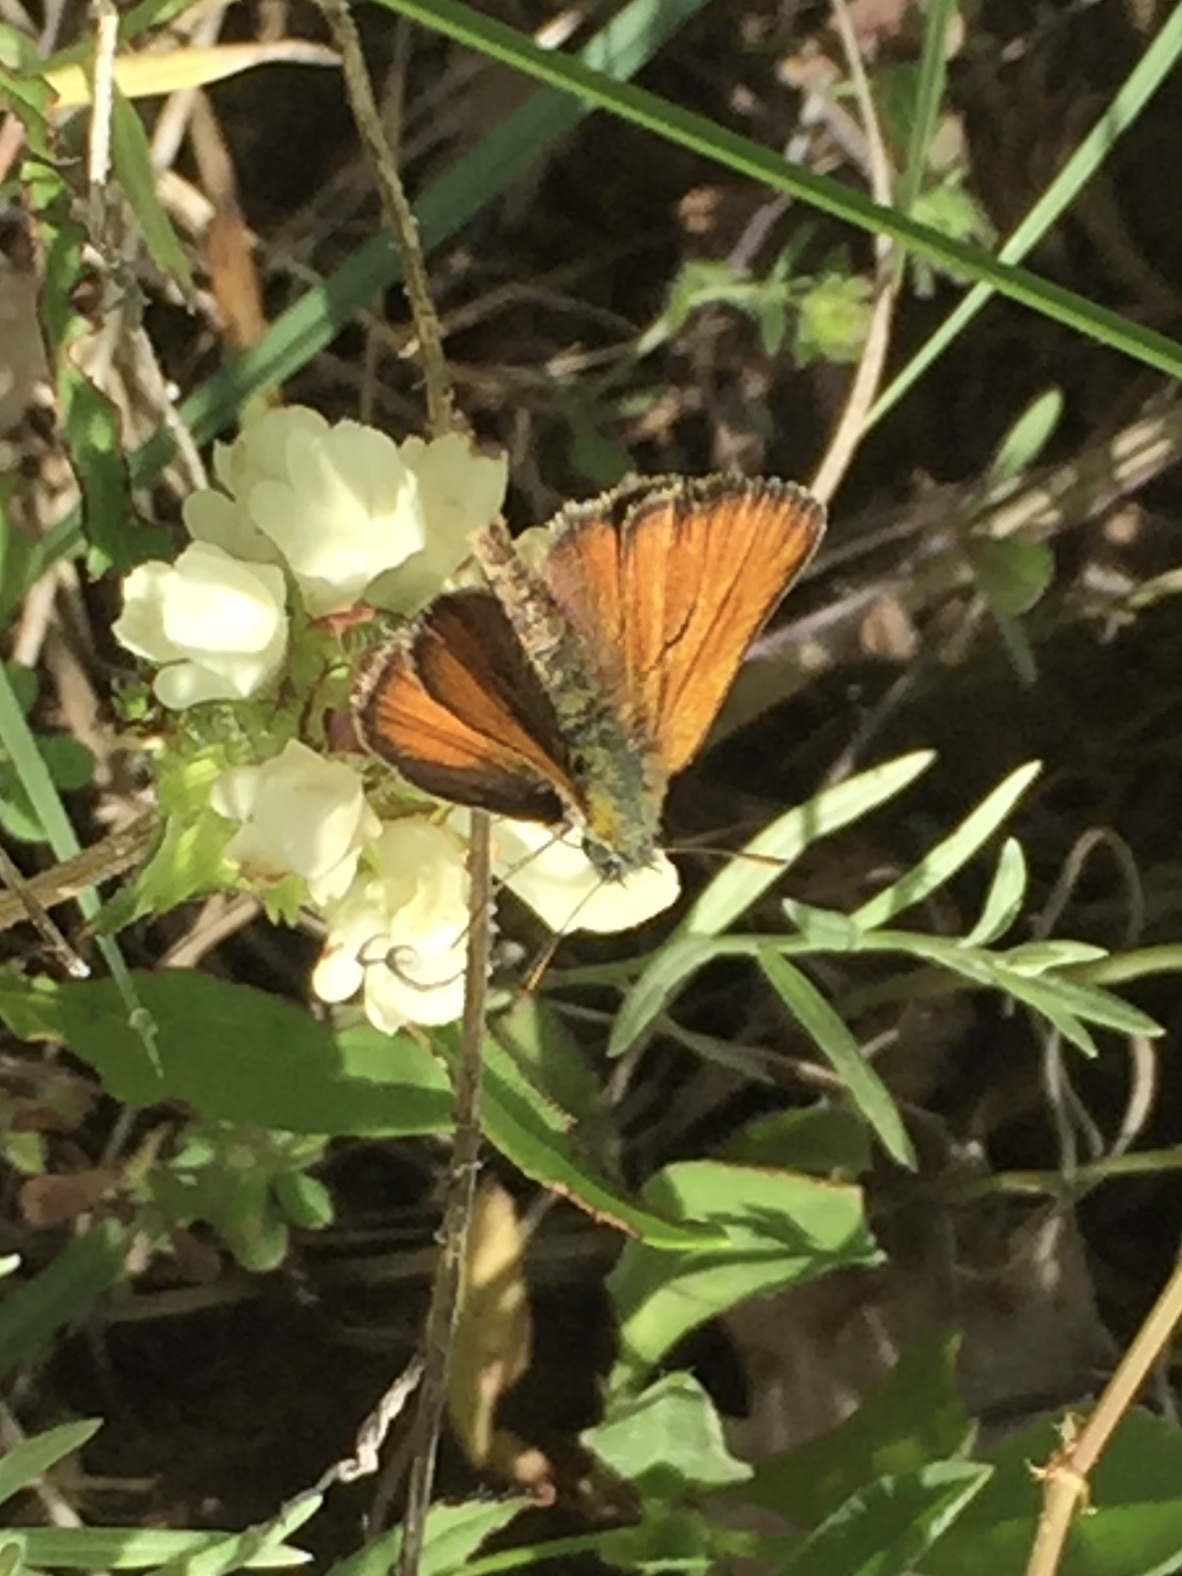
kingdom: Animalia
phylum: Arthropoda
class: Insecta
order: Lepidoptera
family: Hesperiidae
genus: Thymelicus
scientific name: Thymelicus sylvestris
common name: Small skipper
